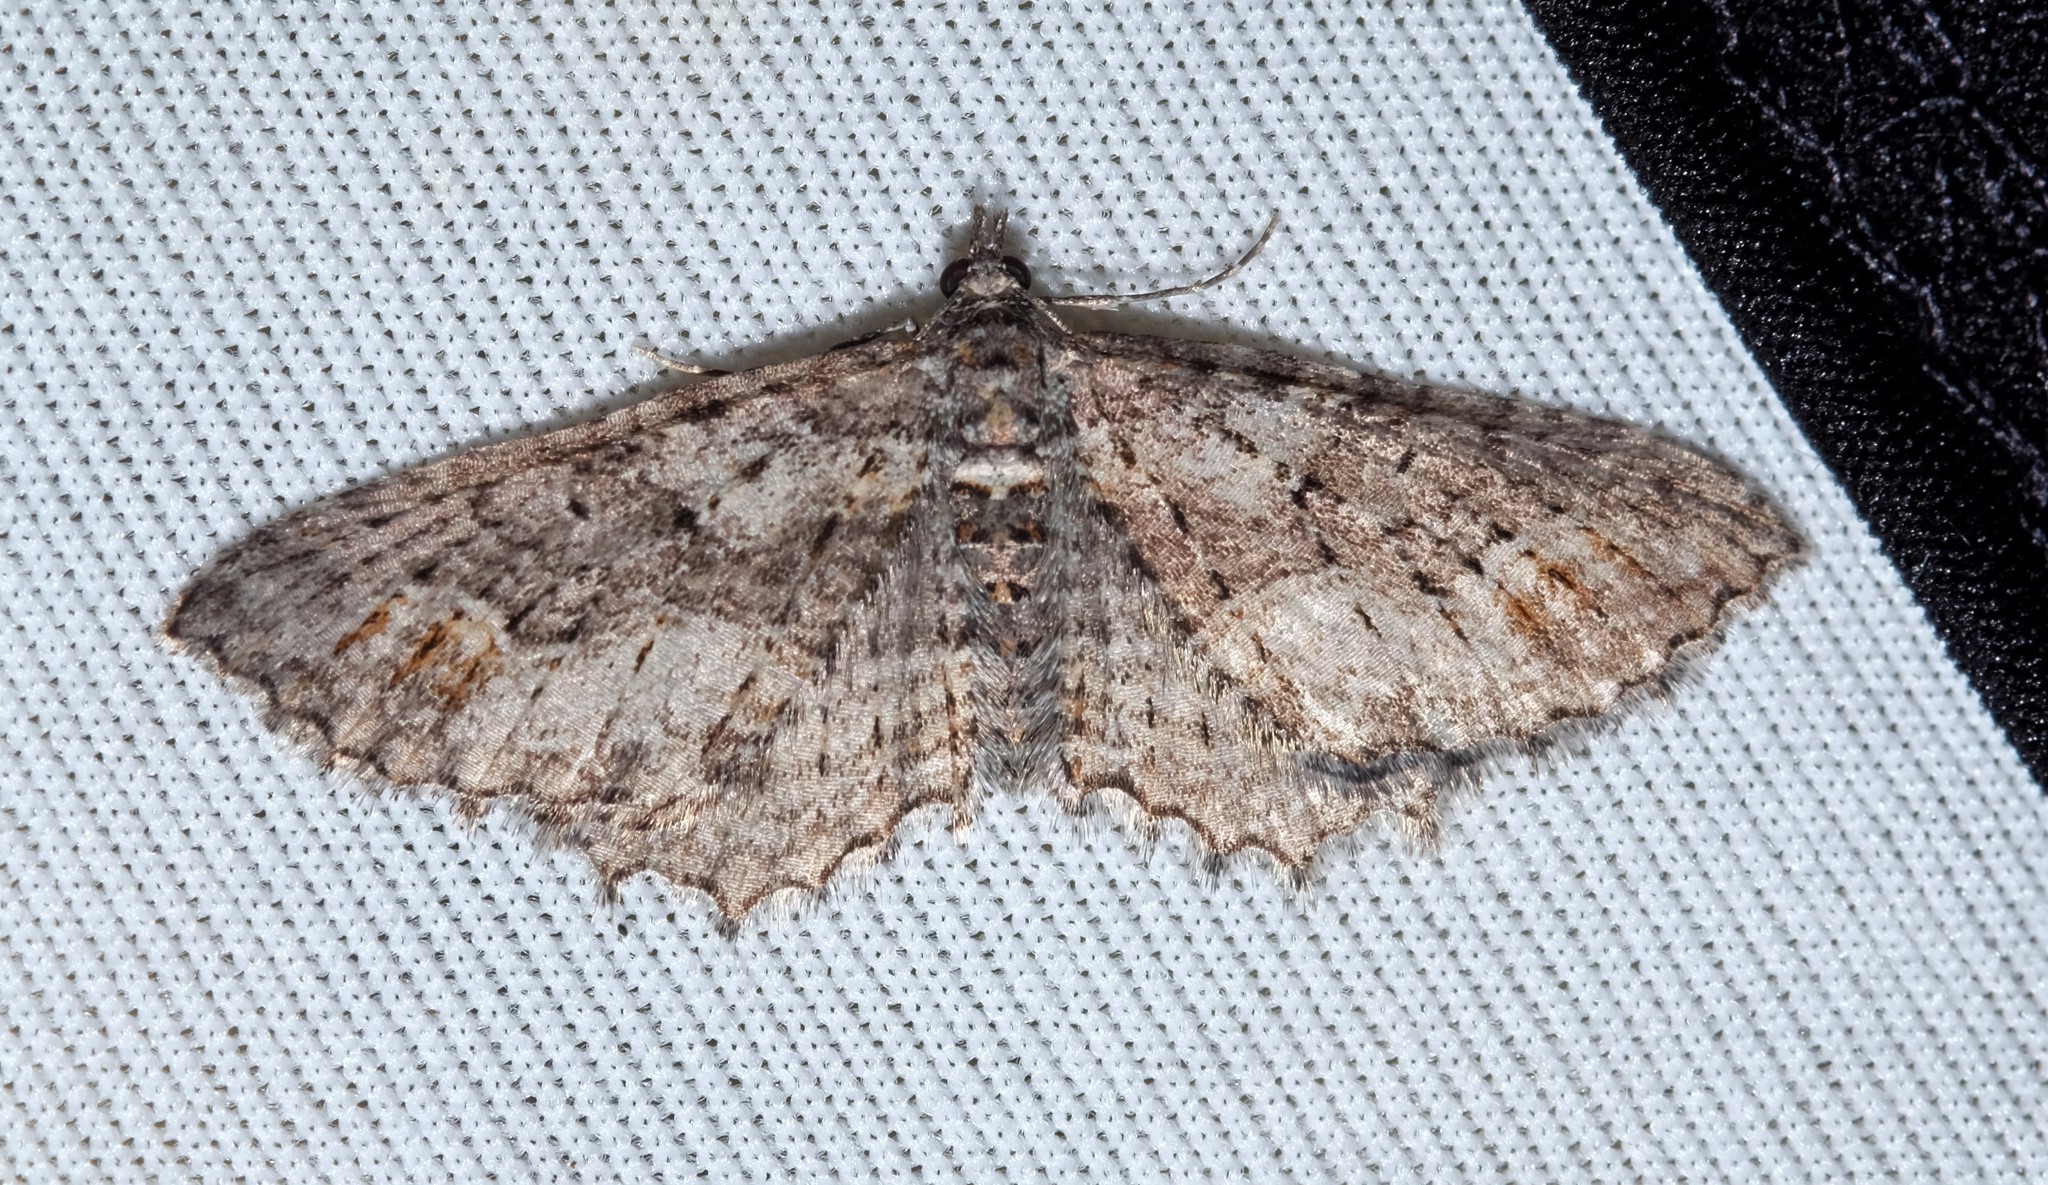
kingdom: Animalia
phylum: Arthropoda
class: Insecta
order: Lepidoptera
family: Geometridae
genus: Chrysolarentia
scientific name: Chrysolarentia plesia
